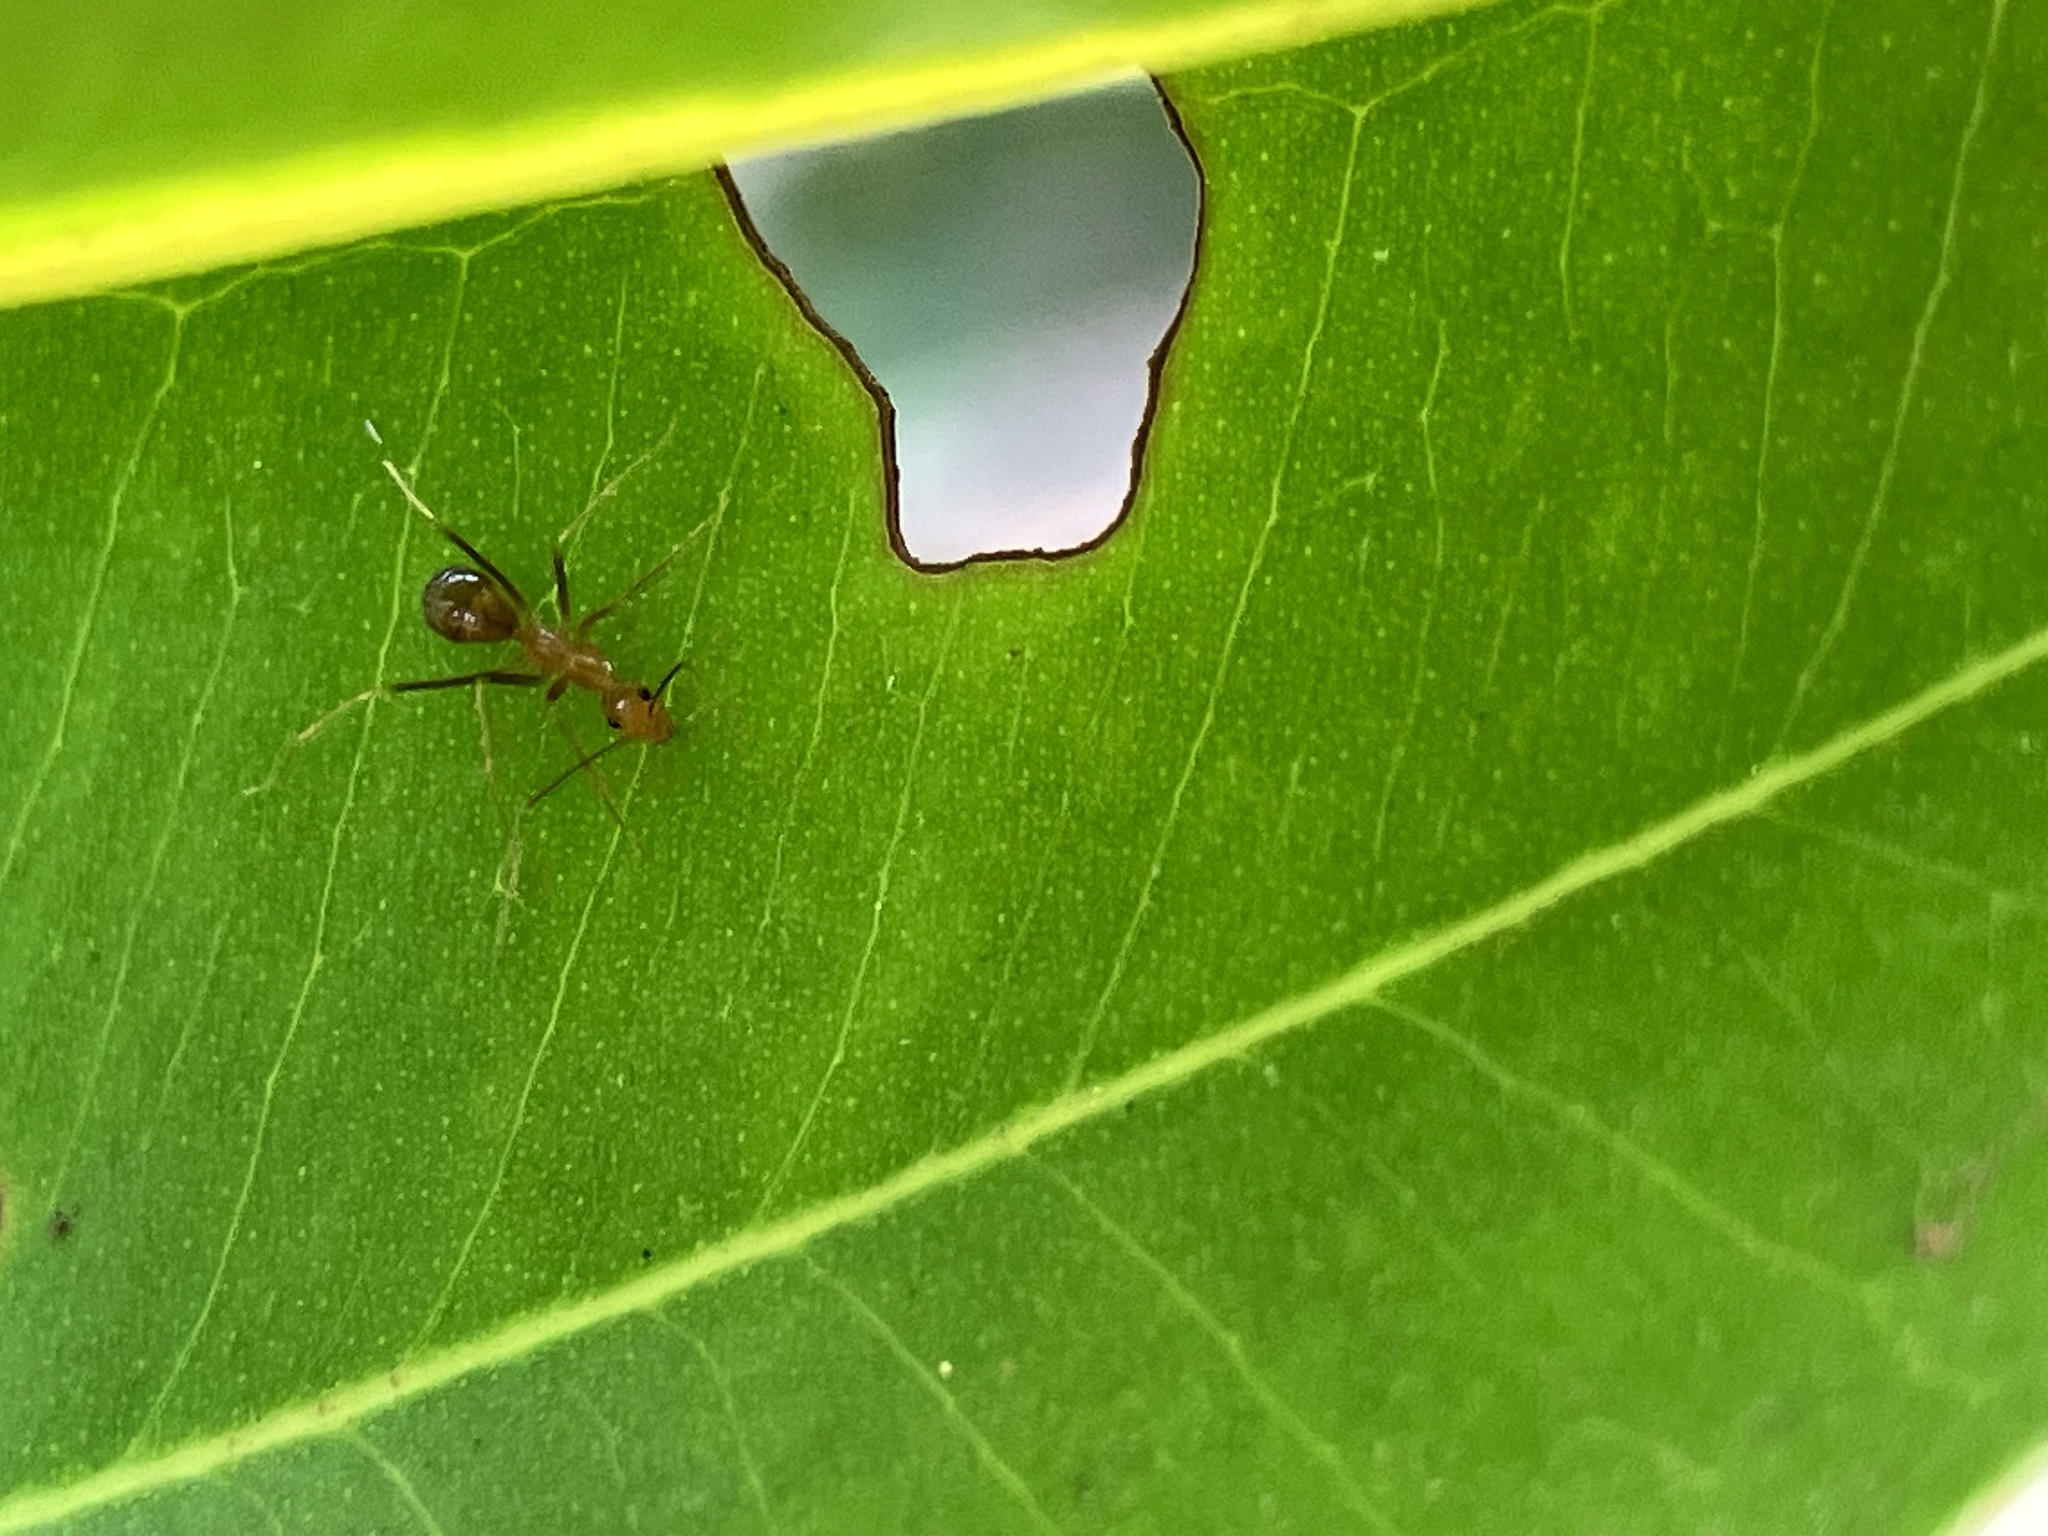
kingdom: Animalia
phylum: Arthropoda
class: Insecta
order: Hymenoptera
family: Formicidae
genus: Anoplolepis
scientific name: Anoplolepis gracilipes
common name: Ant
